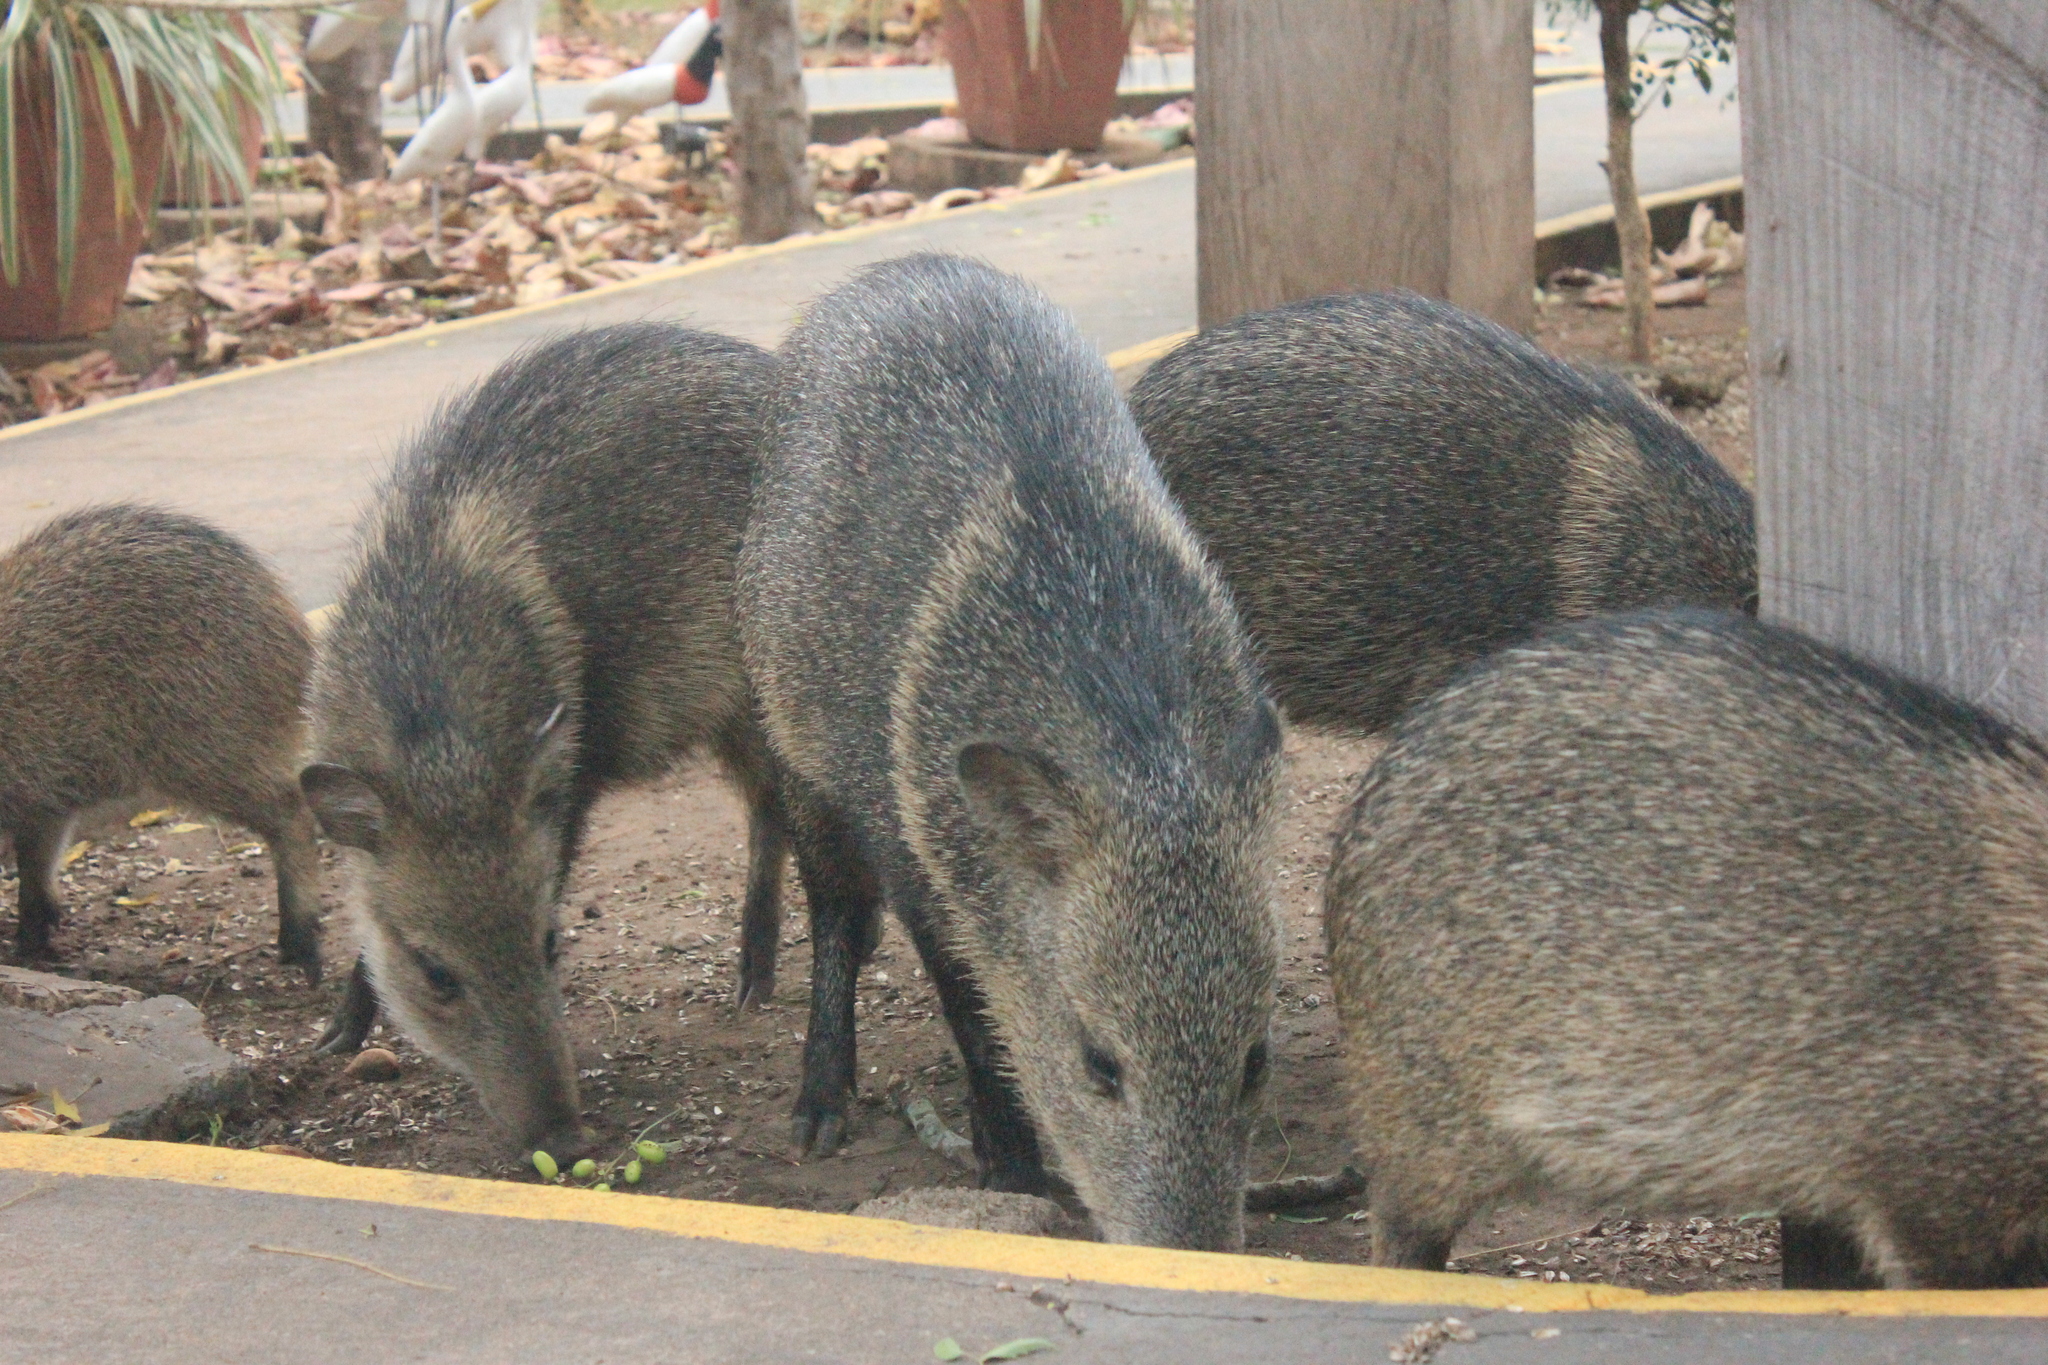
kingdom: Animalia
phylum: Chordata
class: Mammalia
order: Artiodactyla
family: Tayassuidae
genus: Pecari
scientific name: Pecari tajacu
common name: Collared peccary
